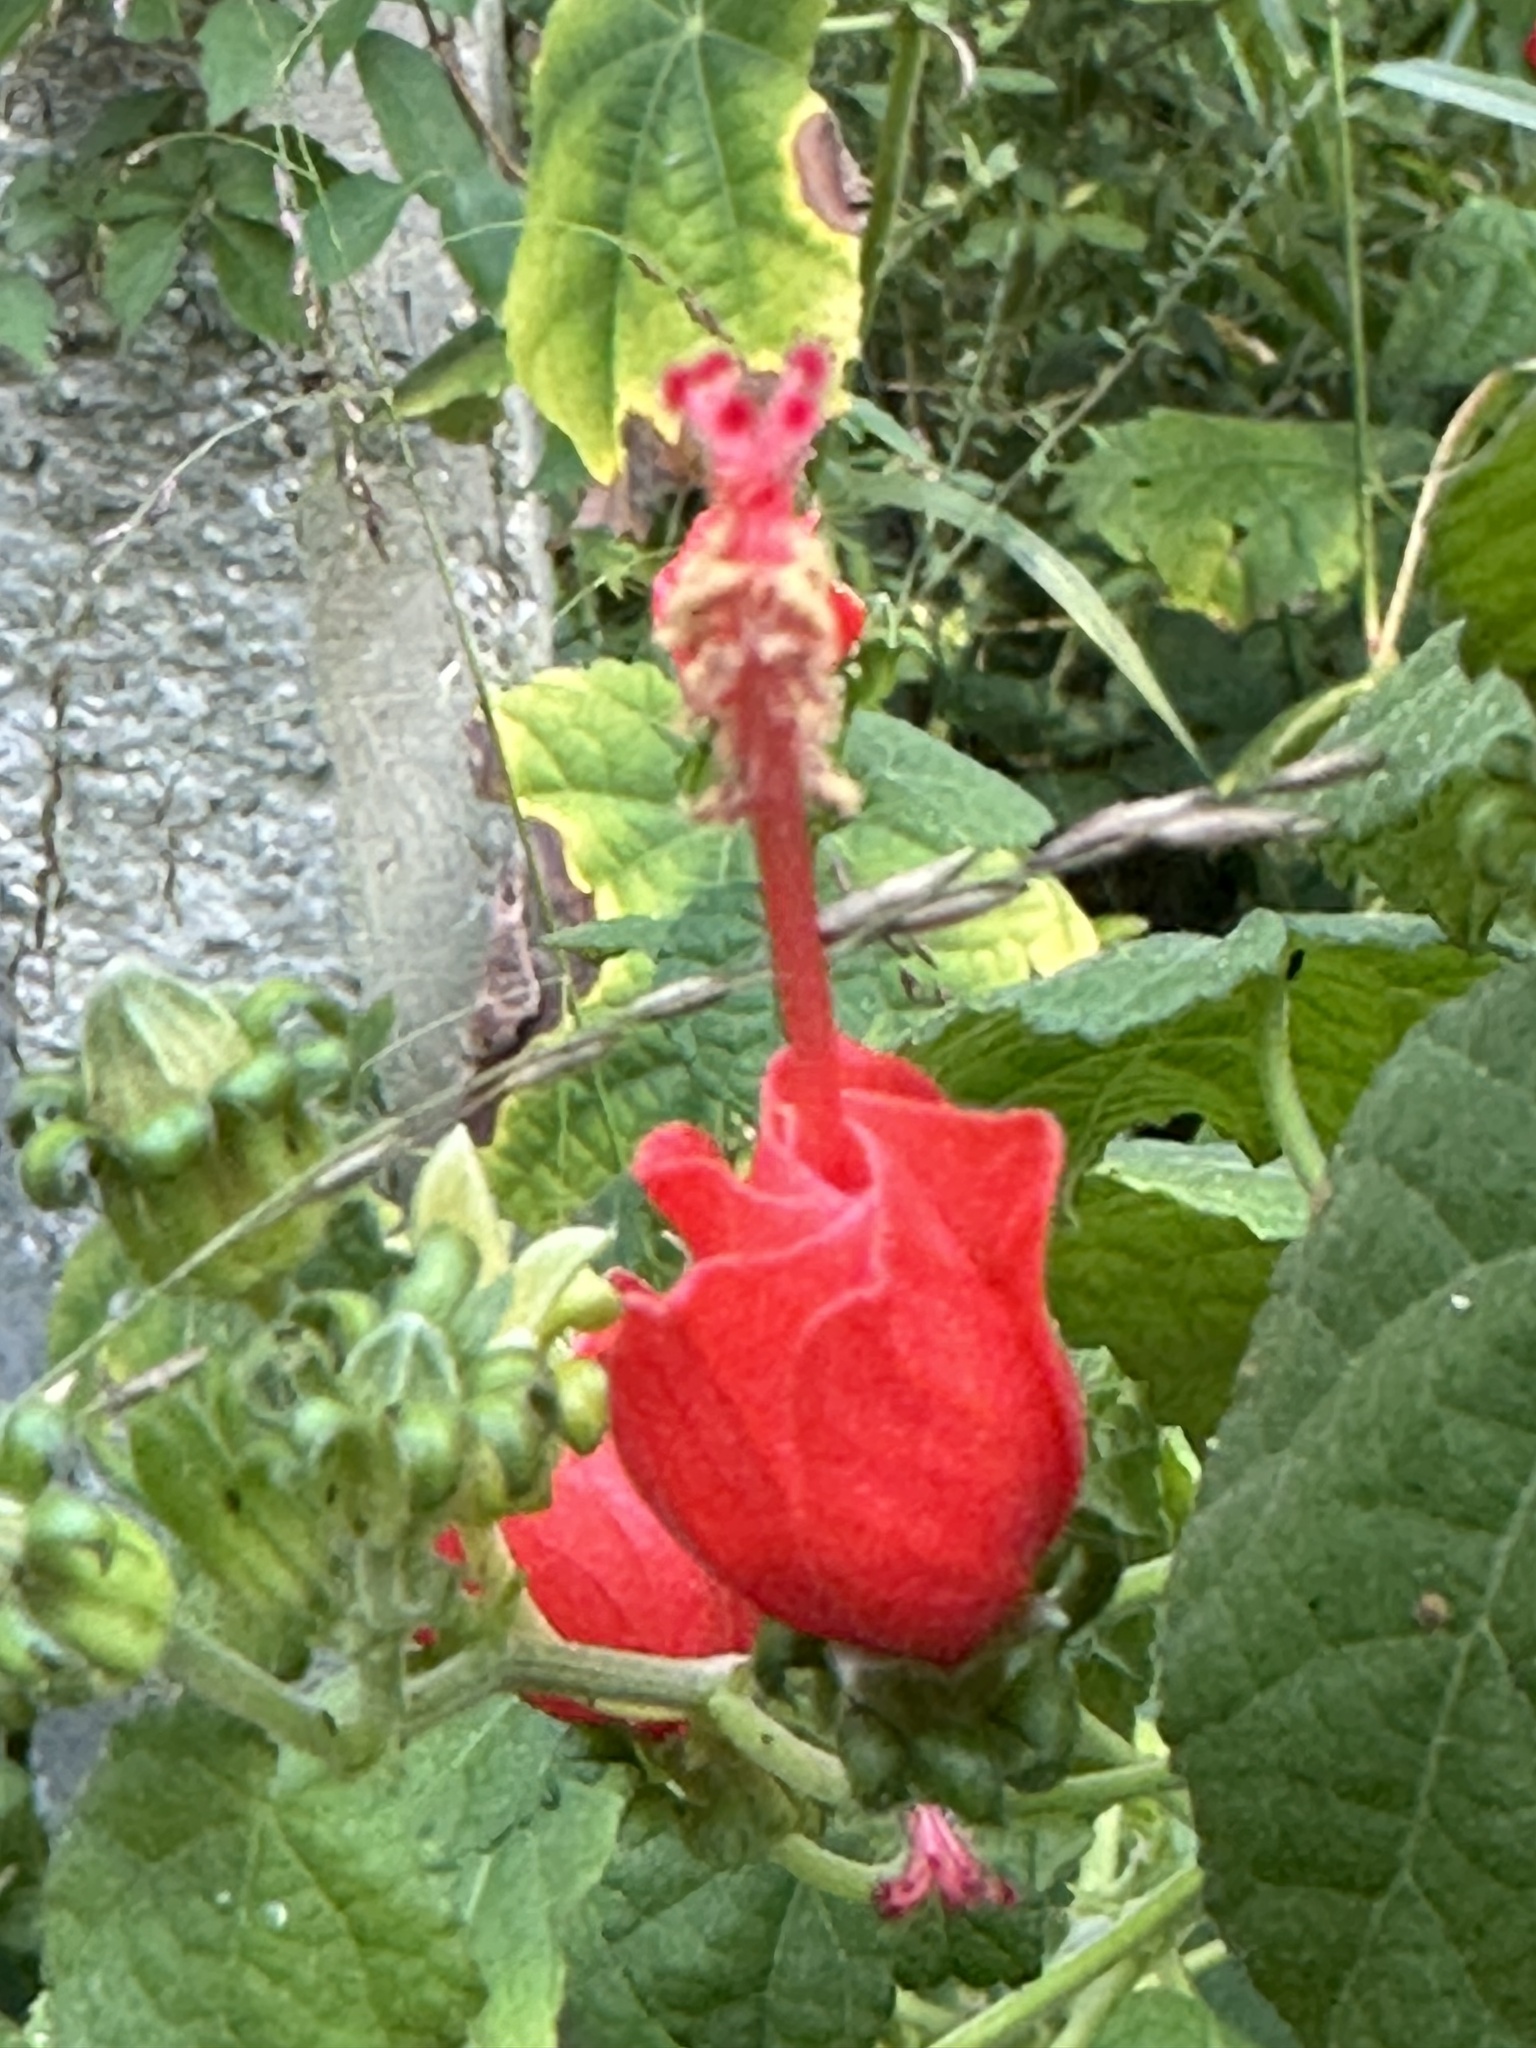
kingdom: Plantae
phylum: Tracheophyta
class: Magnoliopsida
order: Malvales
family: Malvaceae
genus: Malvaviscus
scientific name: Malvaviscus arboreus
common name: Wax mallow
